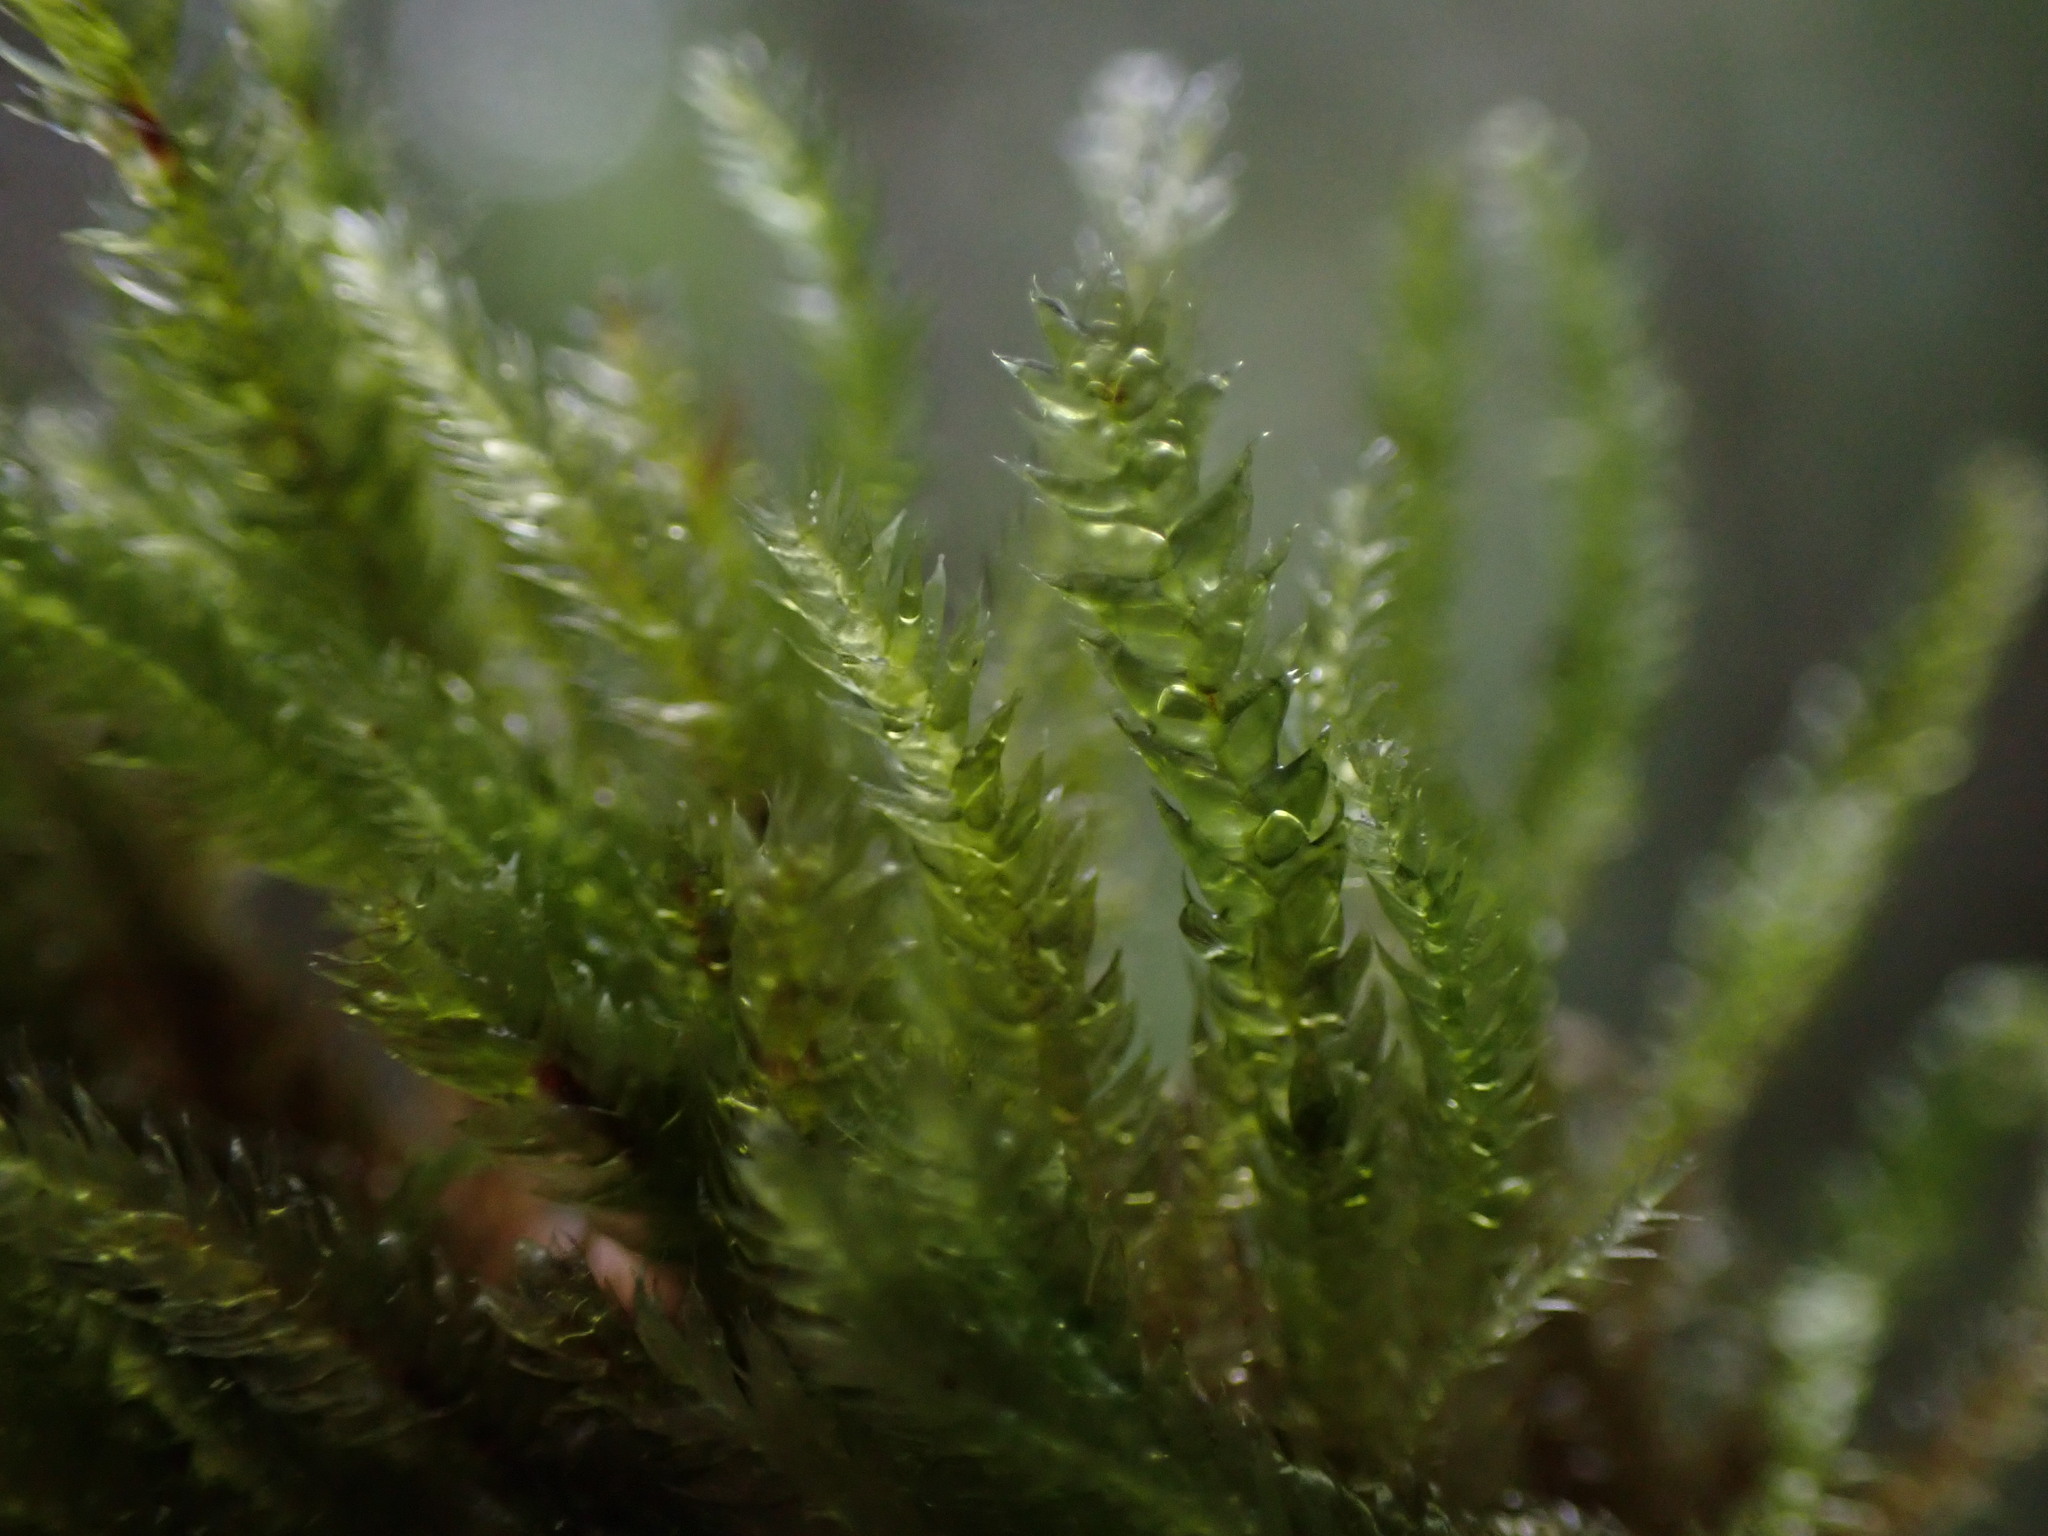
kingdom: Plantae
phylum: Bryophyta
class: Bryopsida
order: Hypnales
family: Plagiotheciaceae
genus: Pseudotaxiphyllum
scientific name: Pseudotaxiphyllum elegans
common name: Elegant silk moss
